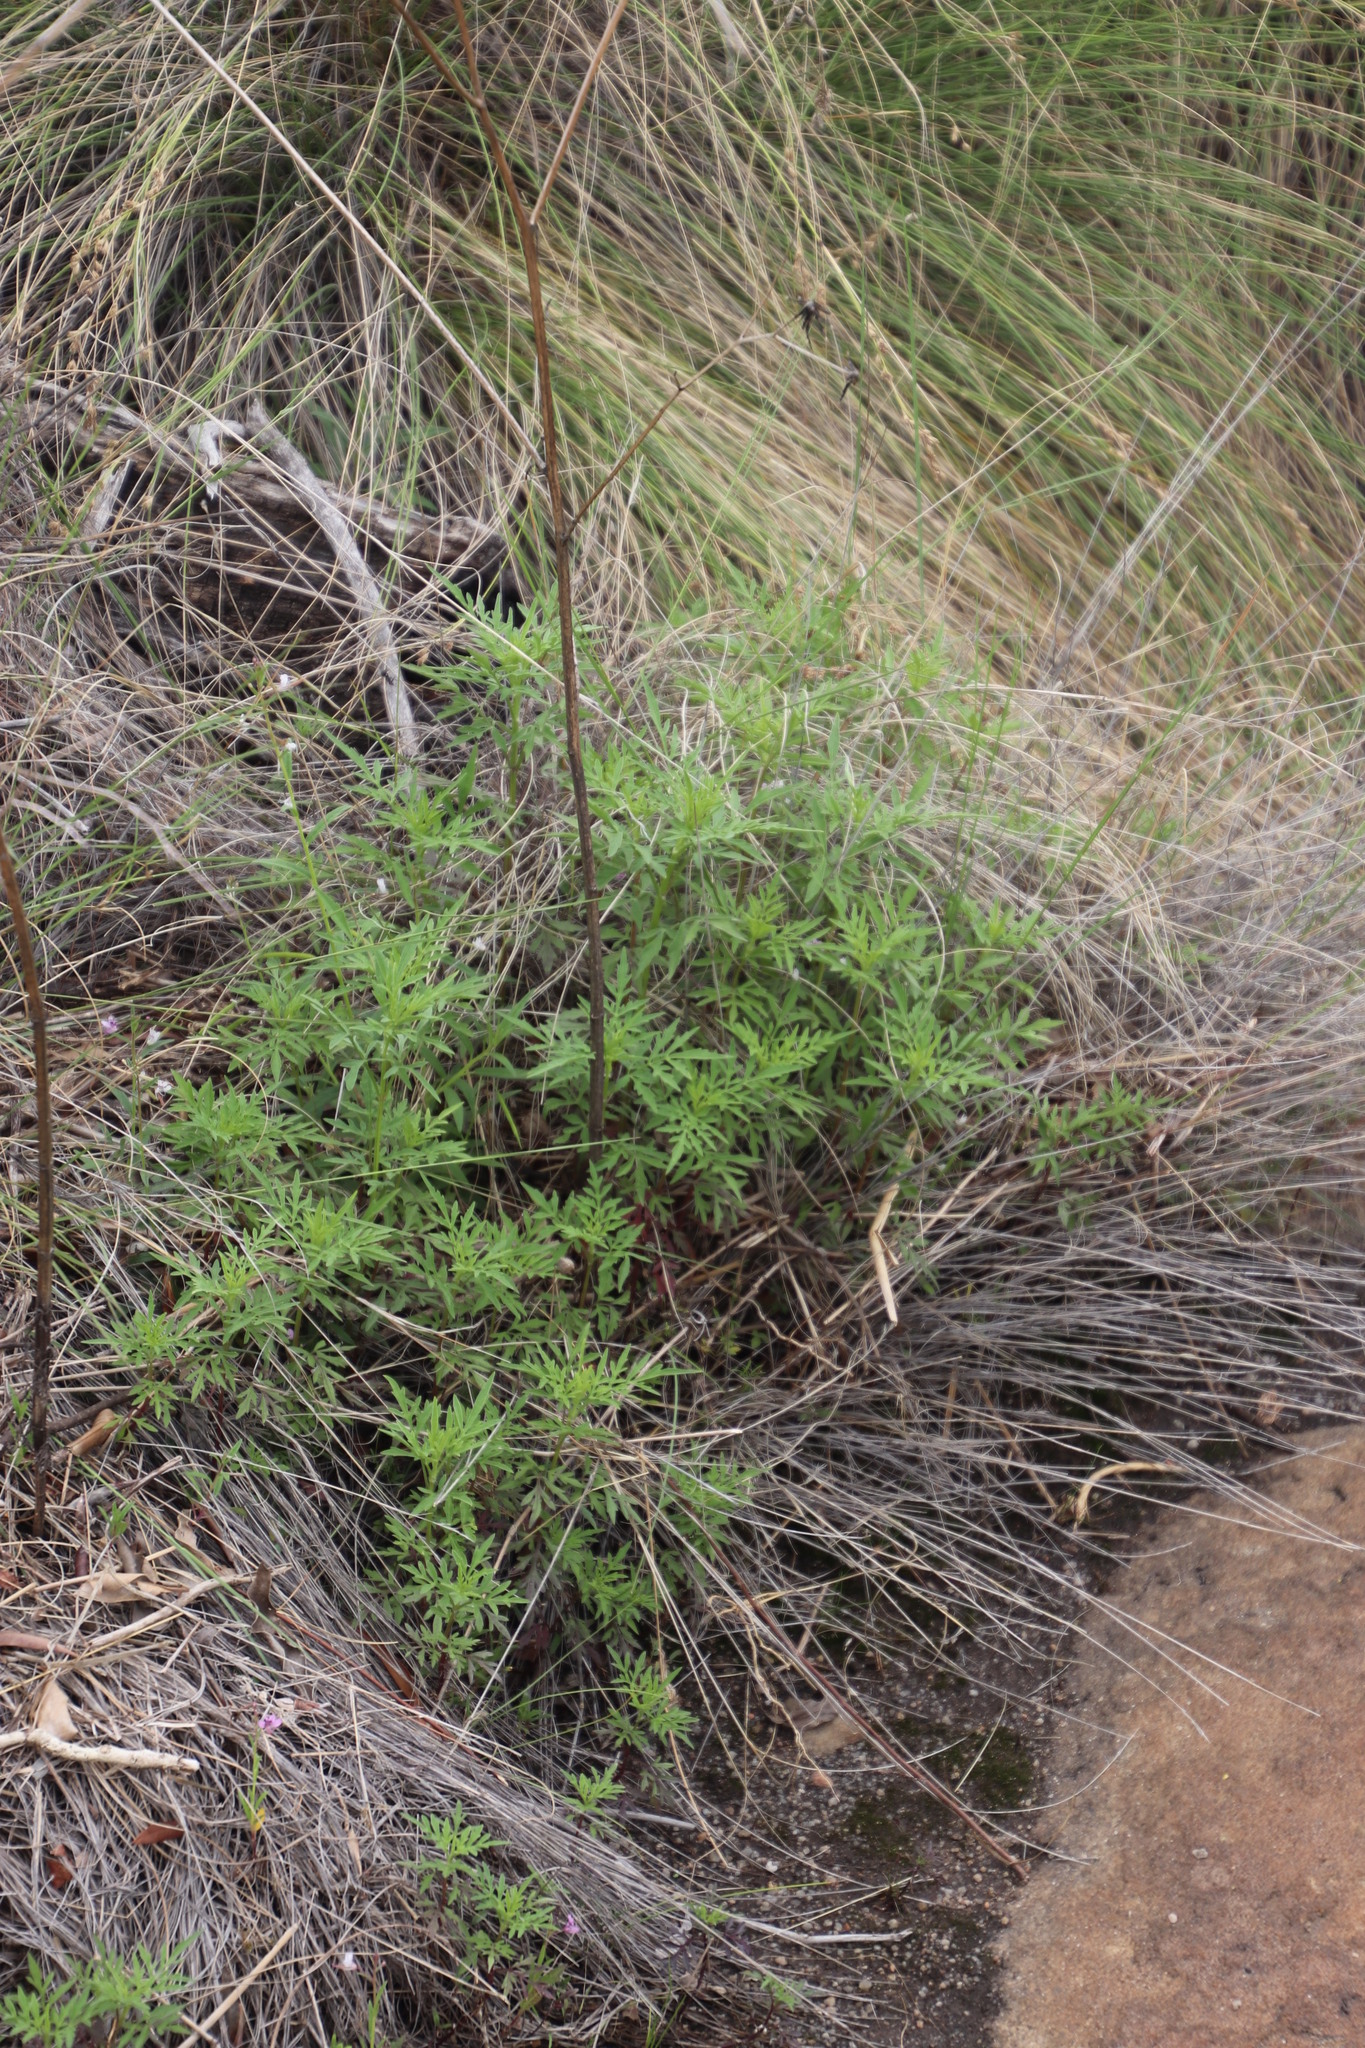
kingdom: Plantae
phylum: Tracheophyta
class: Magnoliopsida
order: Asterales
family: Asteraceae
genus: Bidens
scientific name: Bidens bipinnata
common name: Spanish-needles
